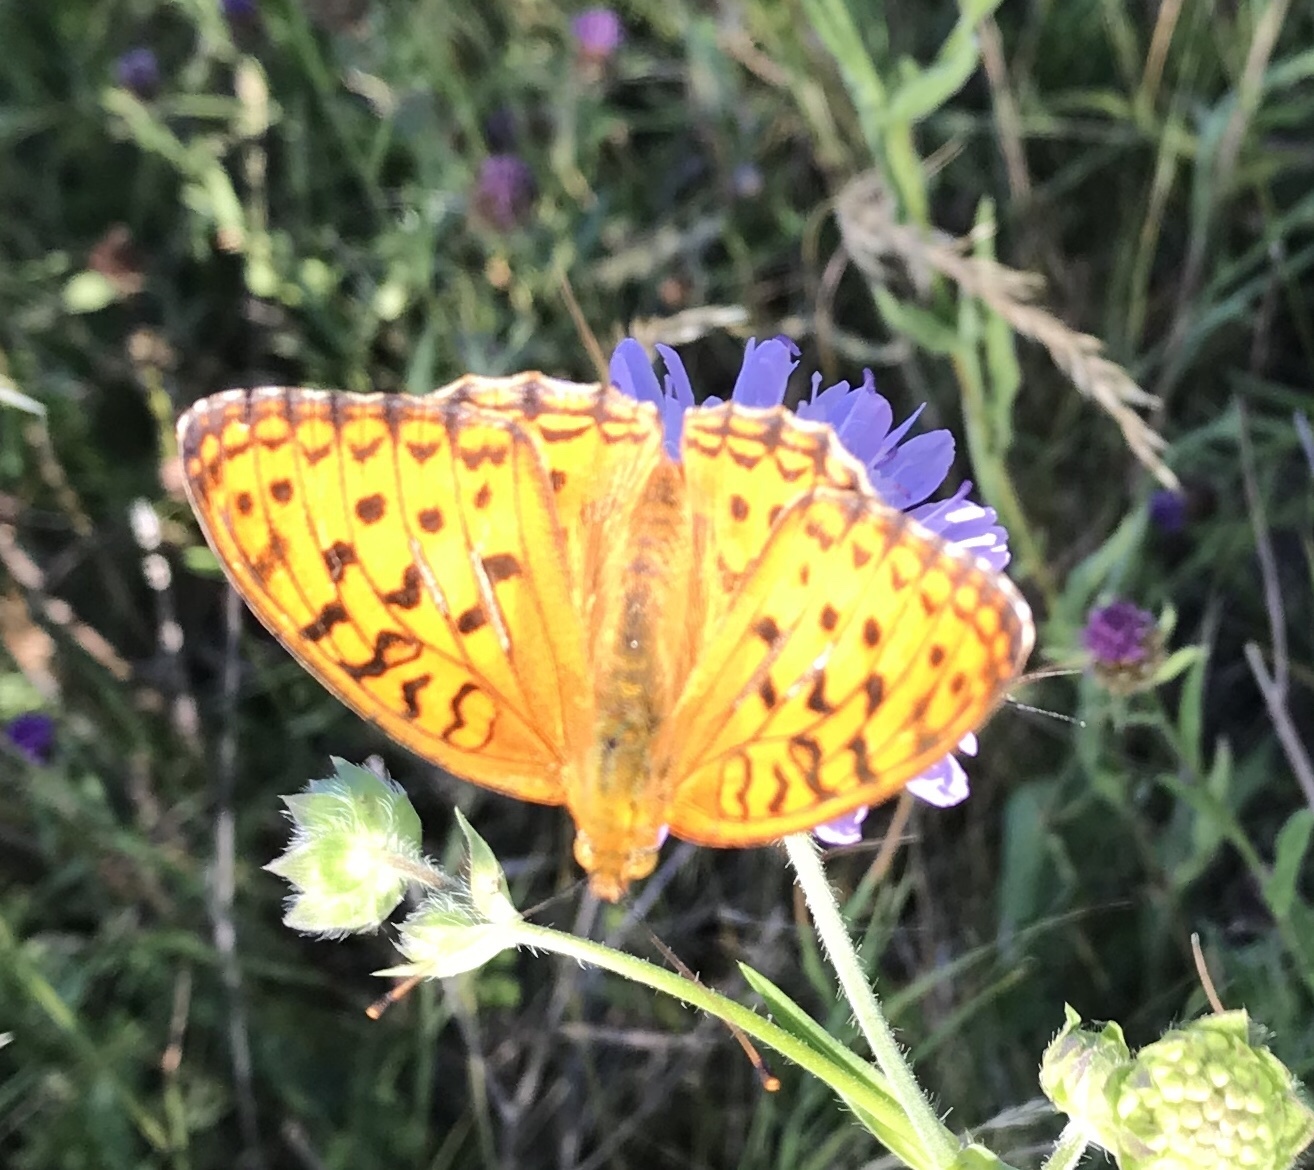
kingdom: Animalia
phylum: Arthropoda
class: Insecta
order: Lepidoptera
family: Nymphalidae
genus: Fabriciana
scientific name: Fabriciana adippe
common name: High brown fritillary
